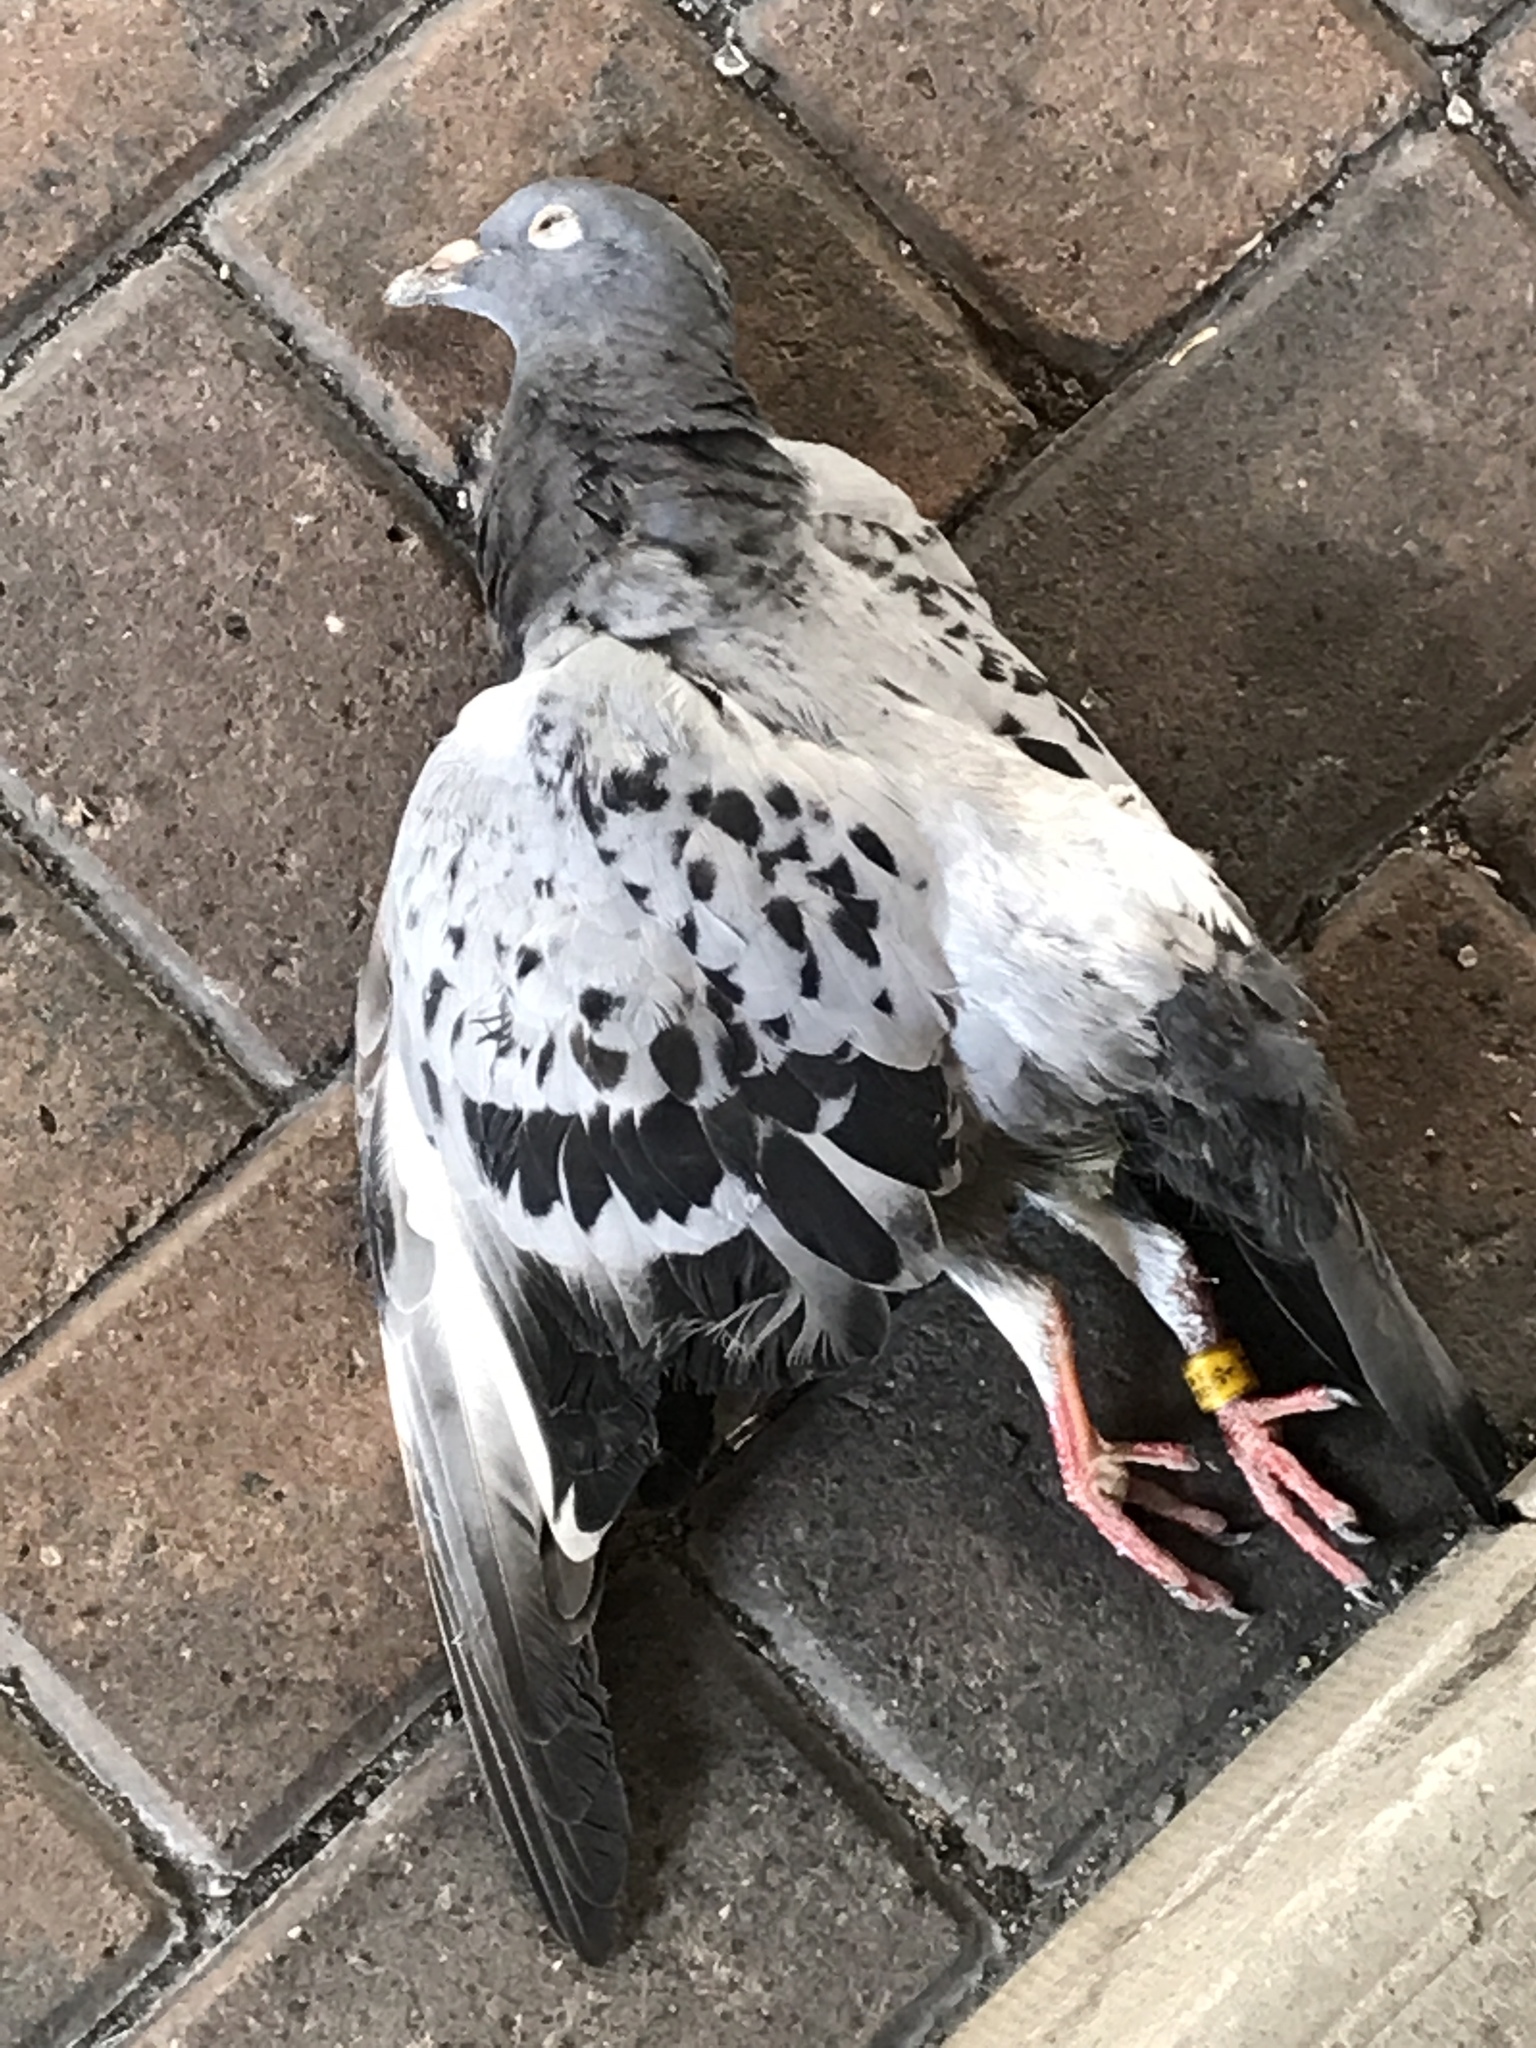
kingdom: Animalia
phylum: Chordata
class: Aves
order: Columbiformes
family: Columbidae
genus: Columba
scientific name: Columba livia
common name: Rock pigeon
